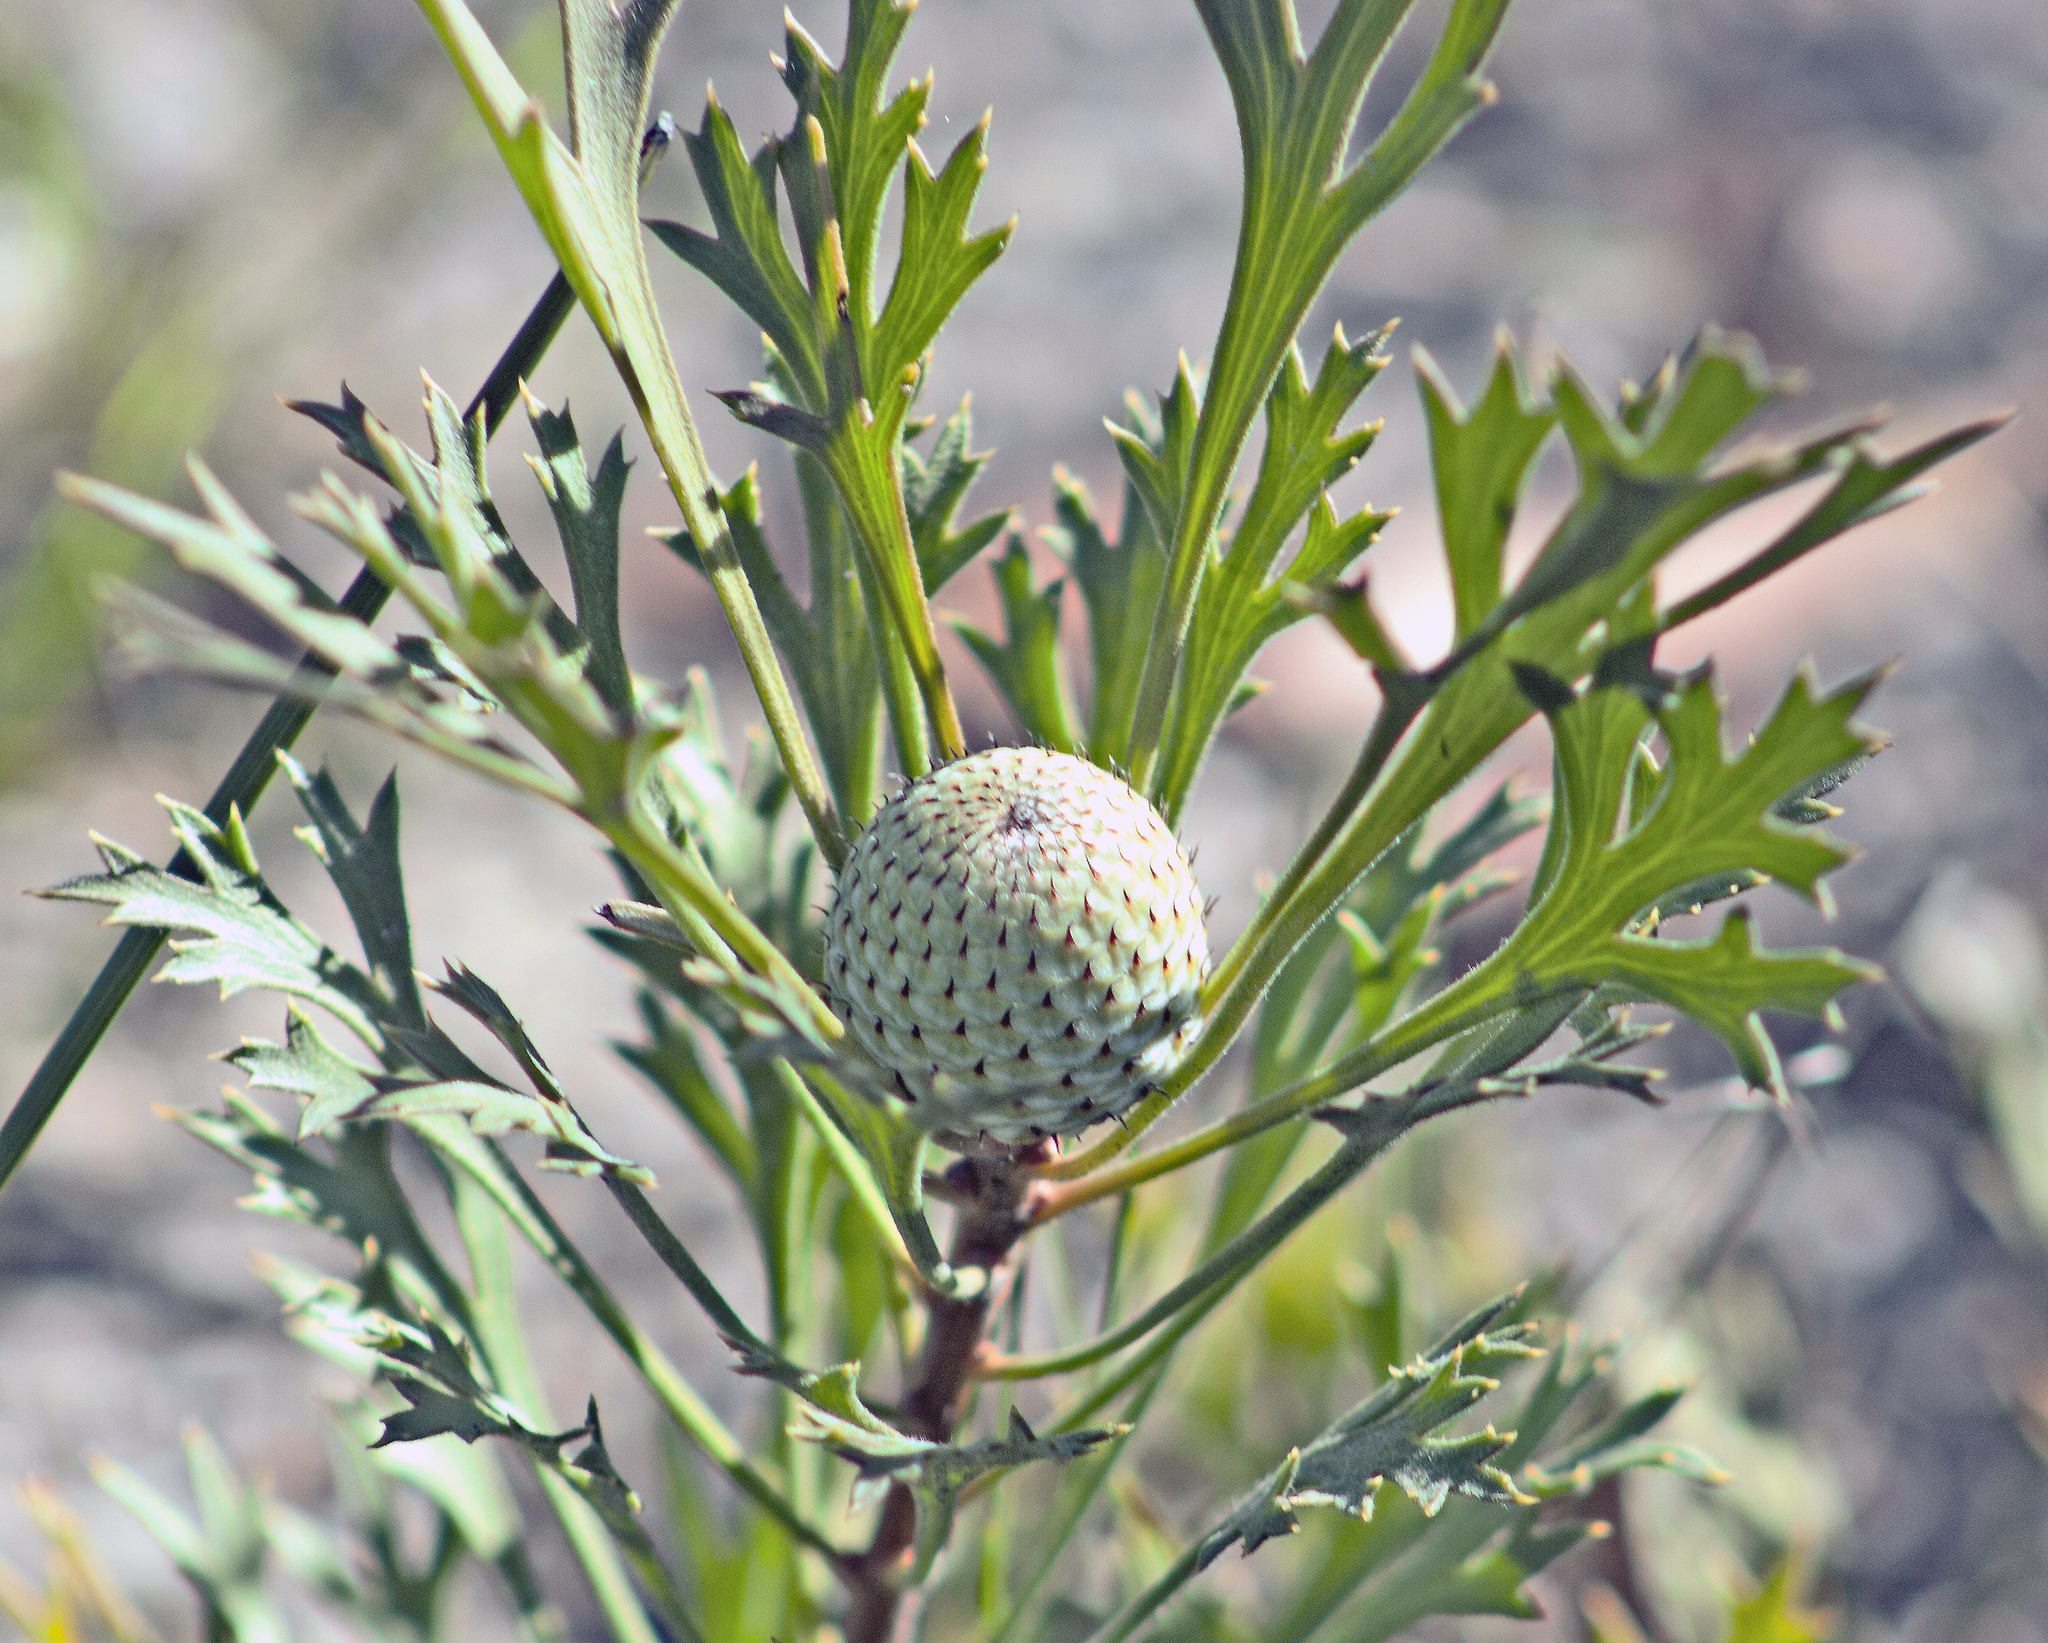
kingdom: Plantae
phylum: Tracheophyta
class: Magnoliopsida
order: Proteales
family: Proteaceae
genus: Isopogon
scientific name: Isopogon petiolaris
